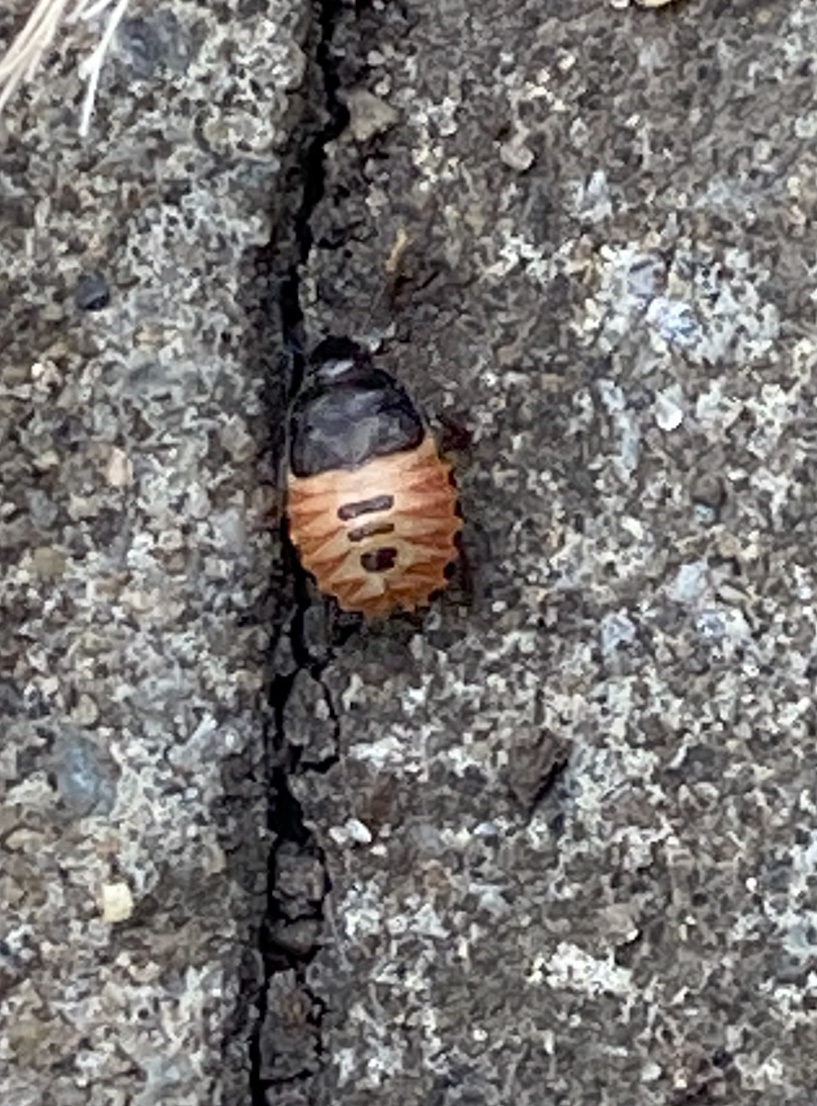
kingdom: Animalia
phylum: Arthropoda
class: Insecta
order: Hemiptera
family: Cydnidae
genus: Sehirus
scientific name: Sehirus luctuosus
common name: Forget-me-not shieldbug
